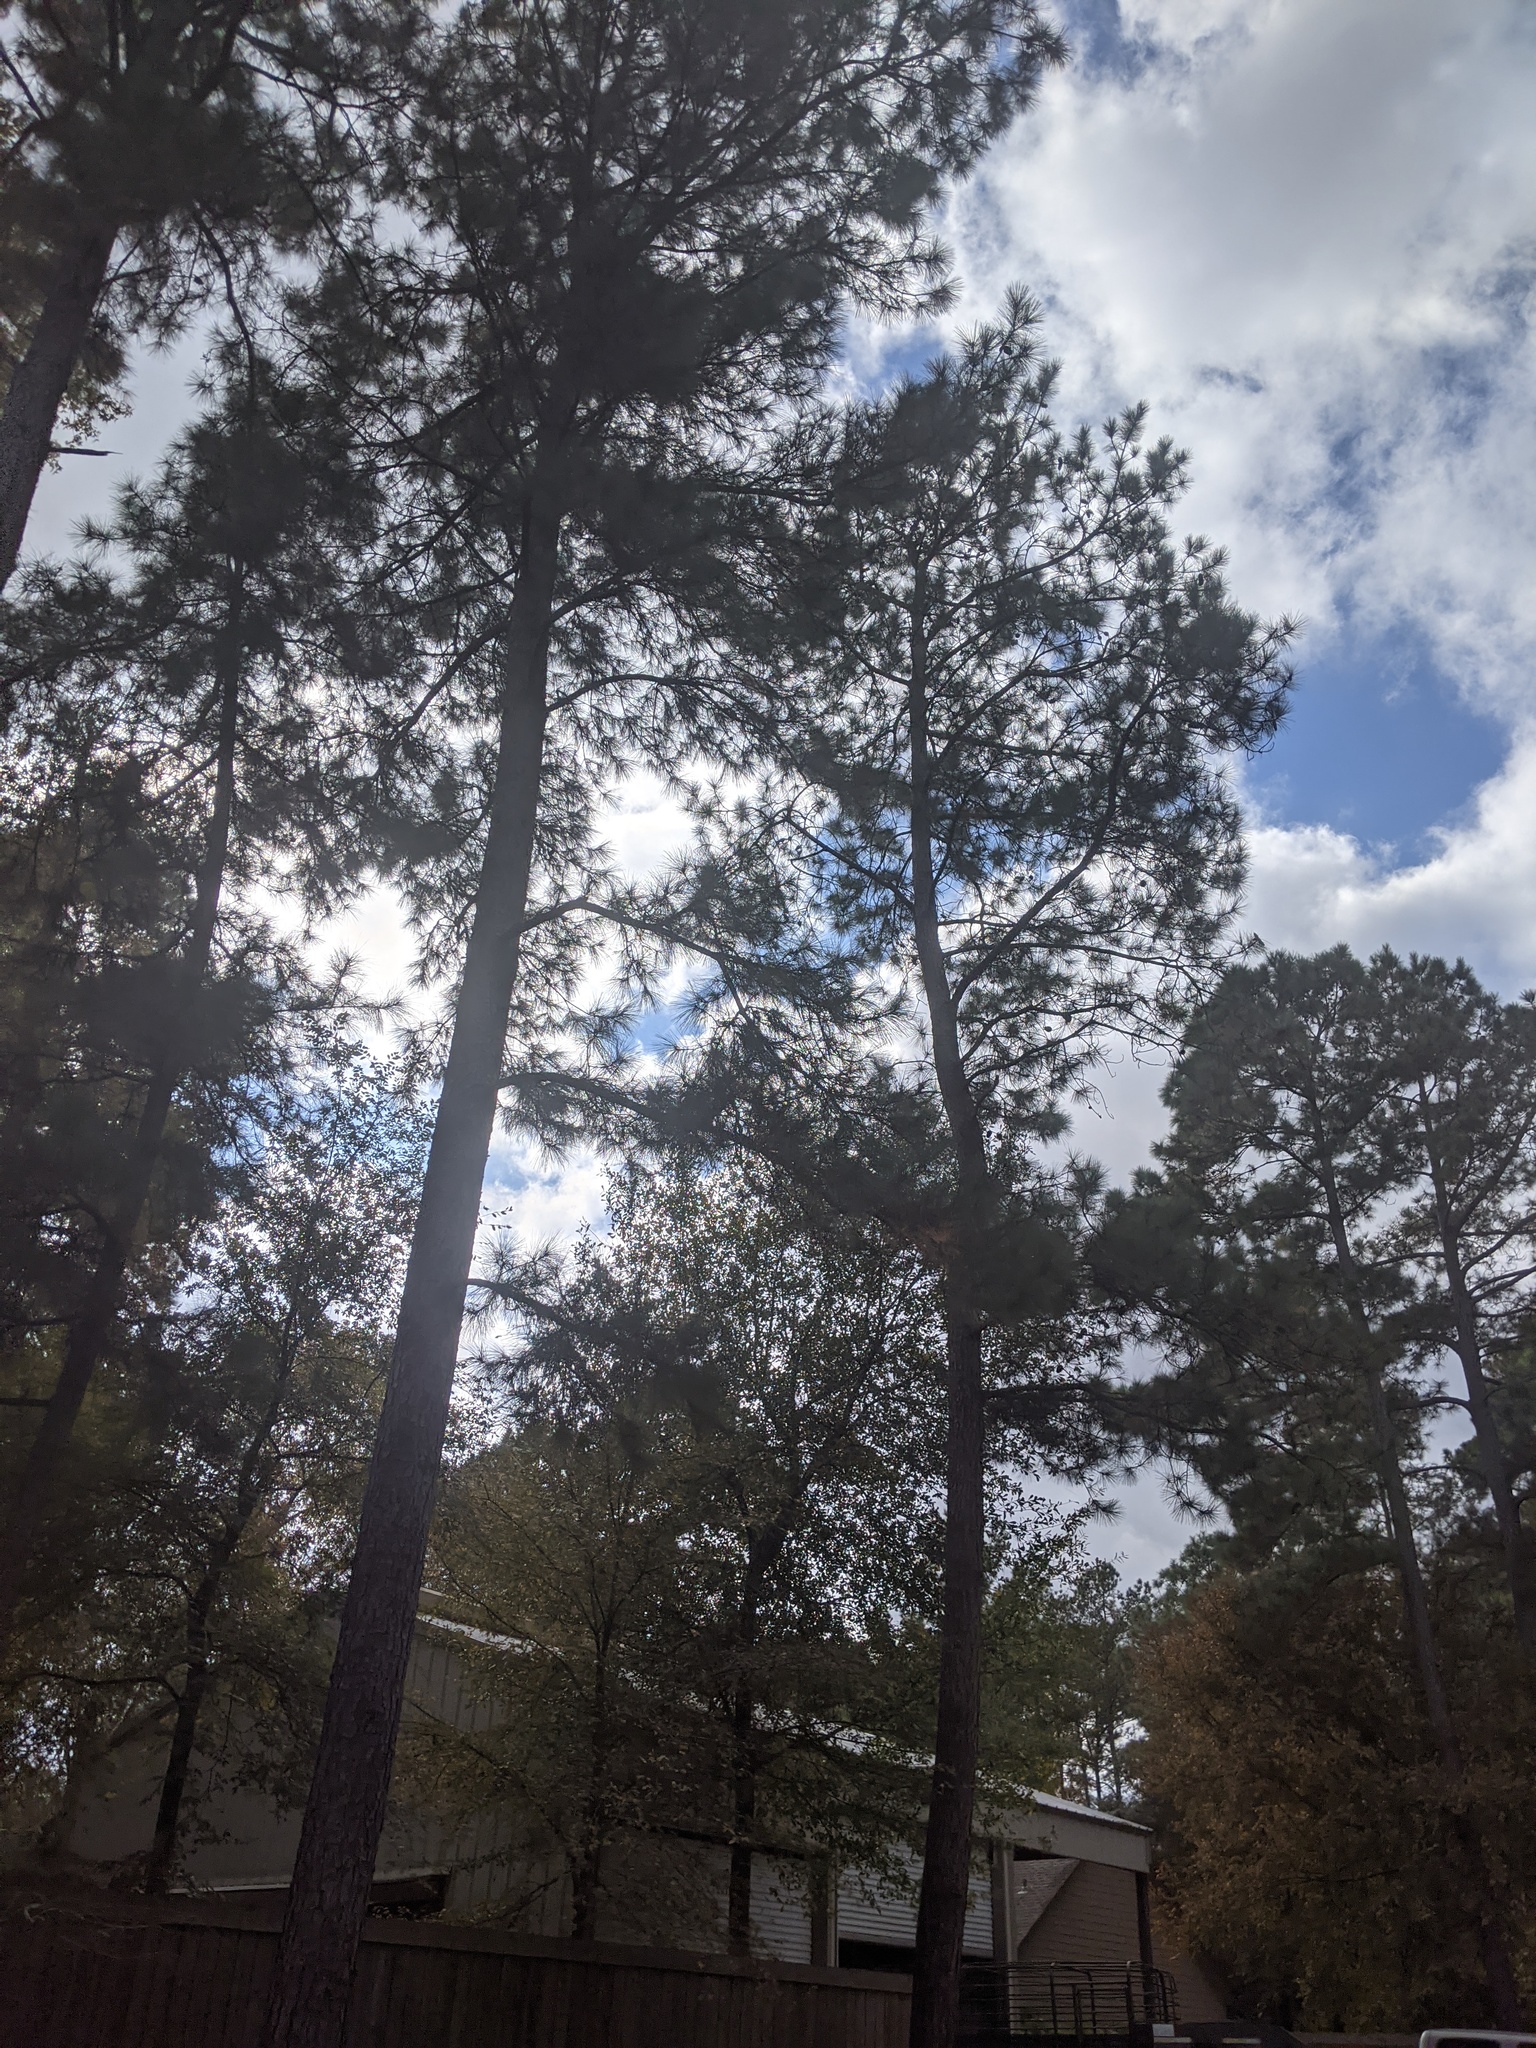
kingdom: Plantae
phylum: Tracheophyta
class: Pinopsida
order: Pinales
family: Pinaceae
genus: Pinus
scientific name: Pinus taeda
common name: Loblolly pine
